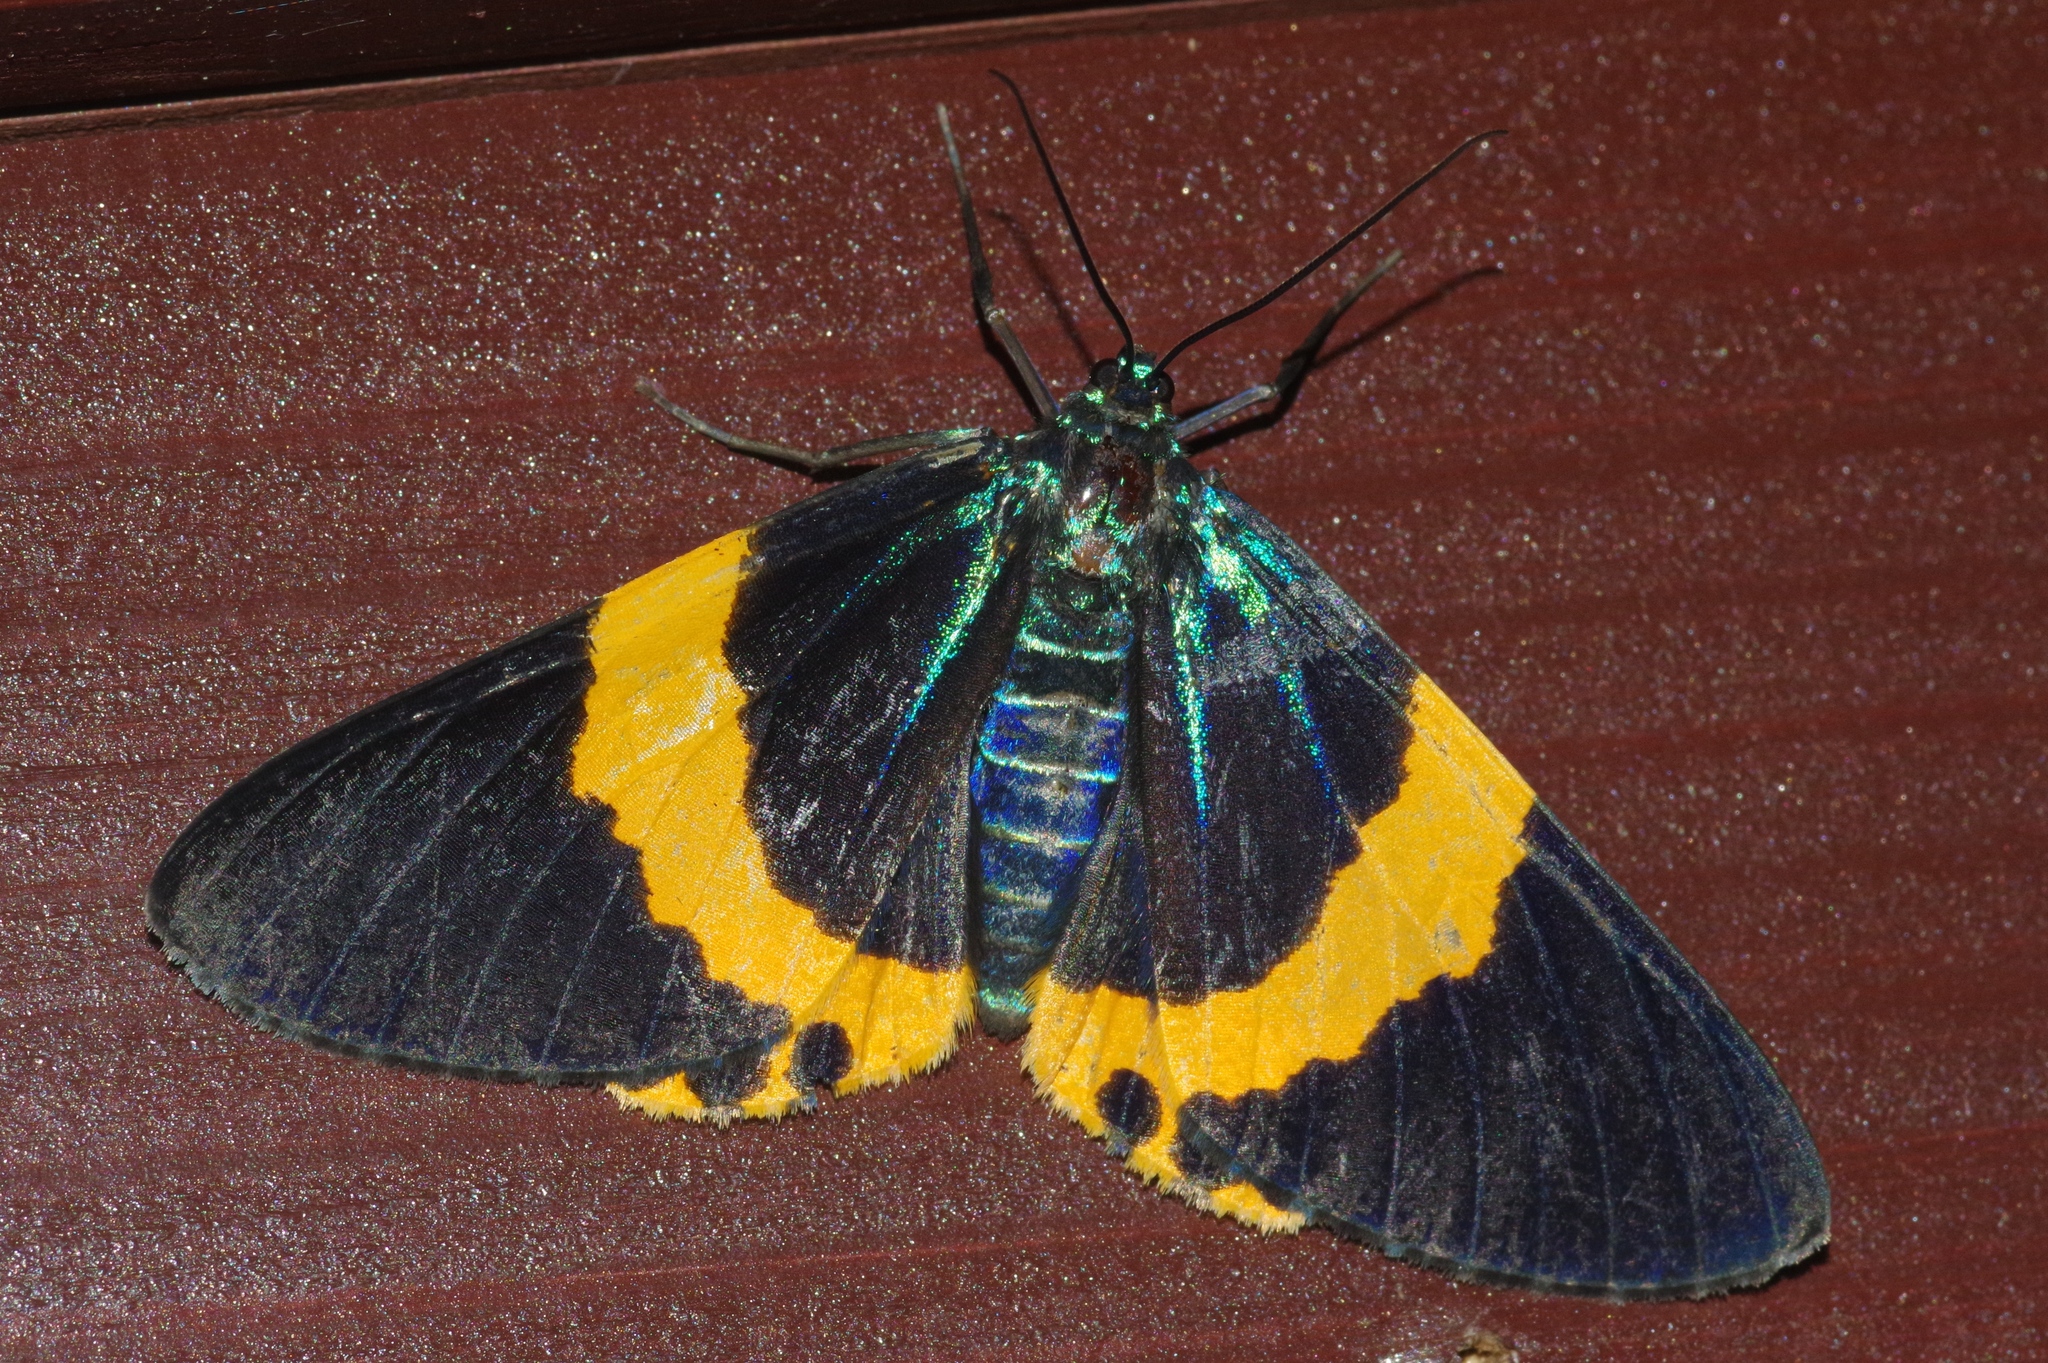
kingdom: Animalia
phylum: Arthropoda
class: Insecta
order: Lepidoptera
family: Geometridae
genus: Milionia
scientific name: Milionia basalis
